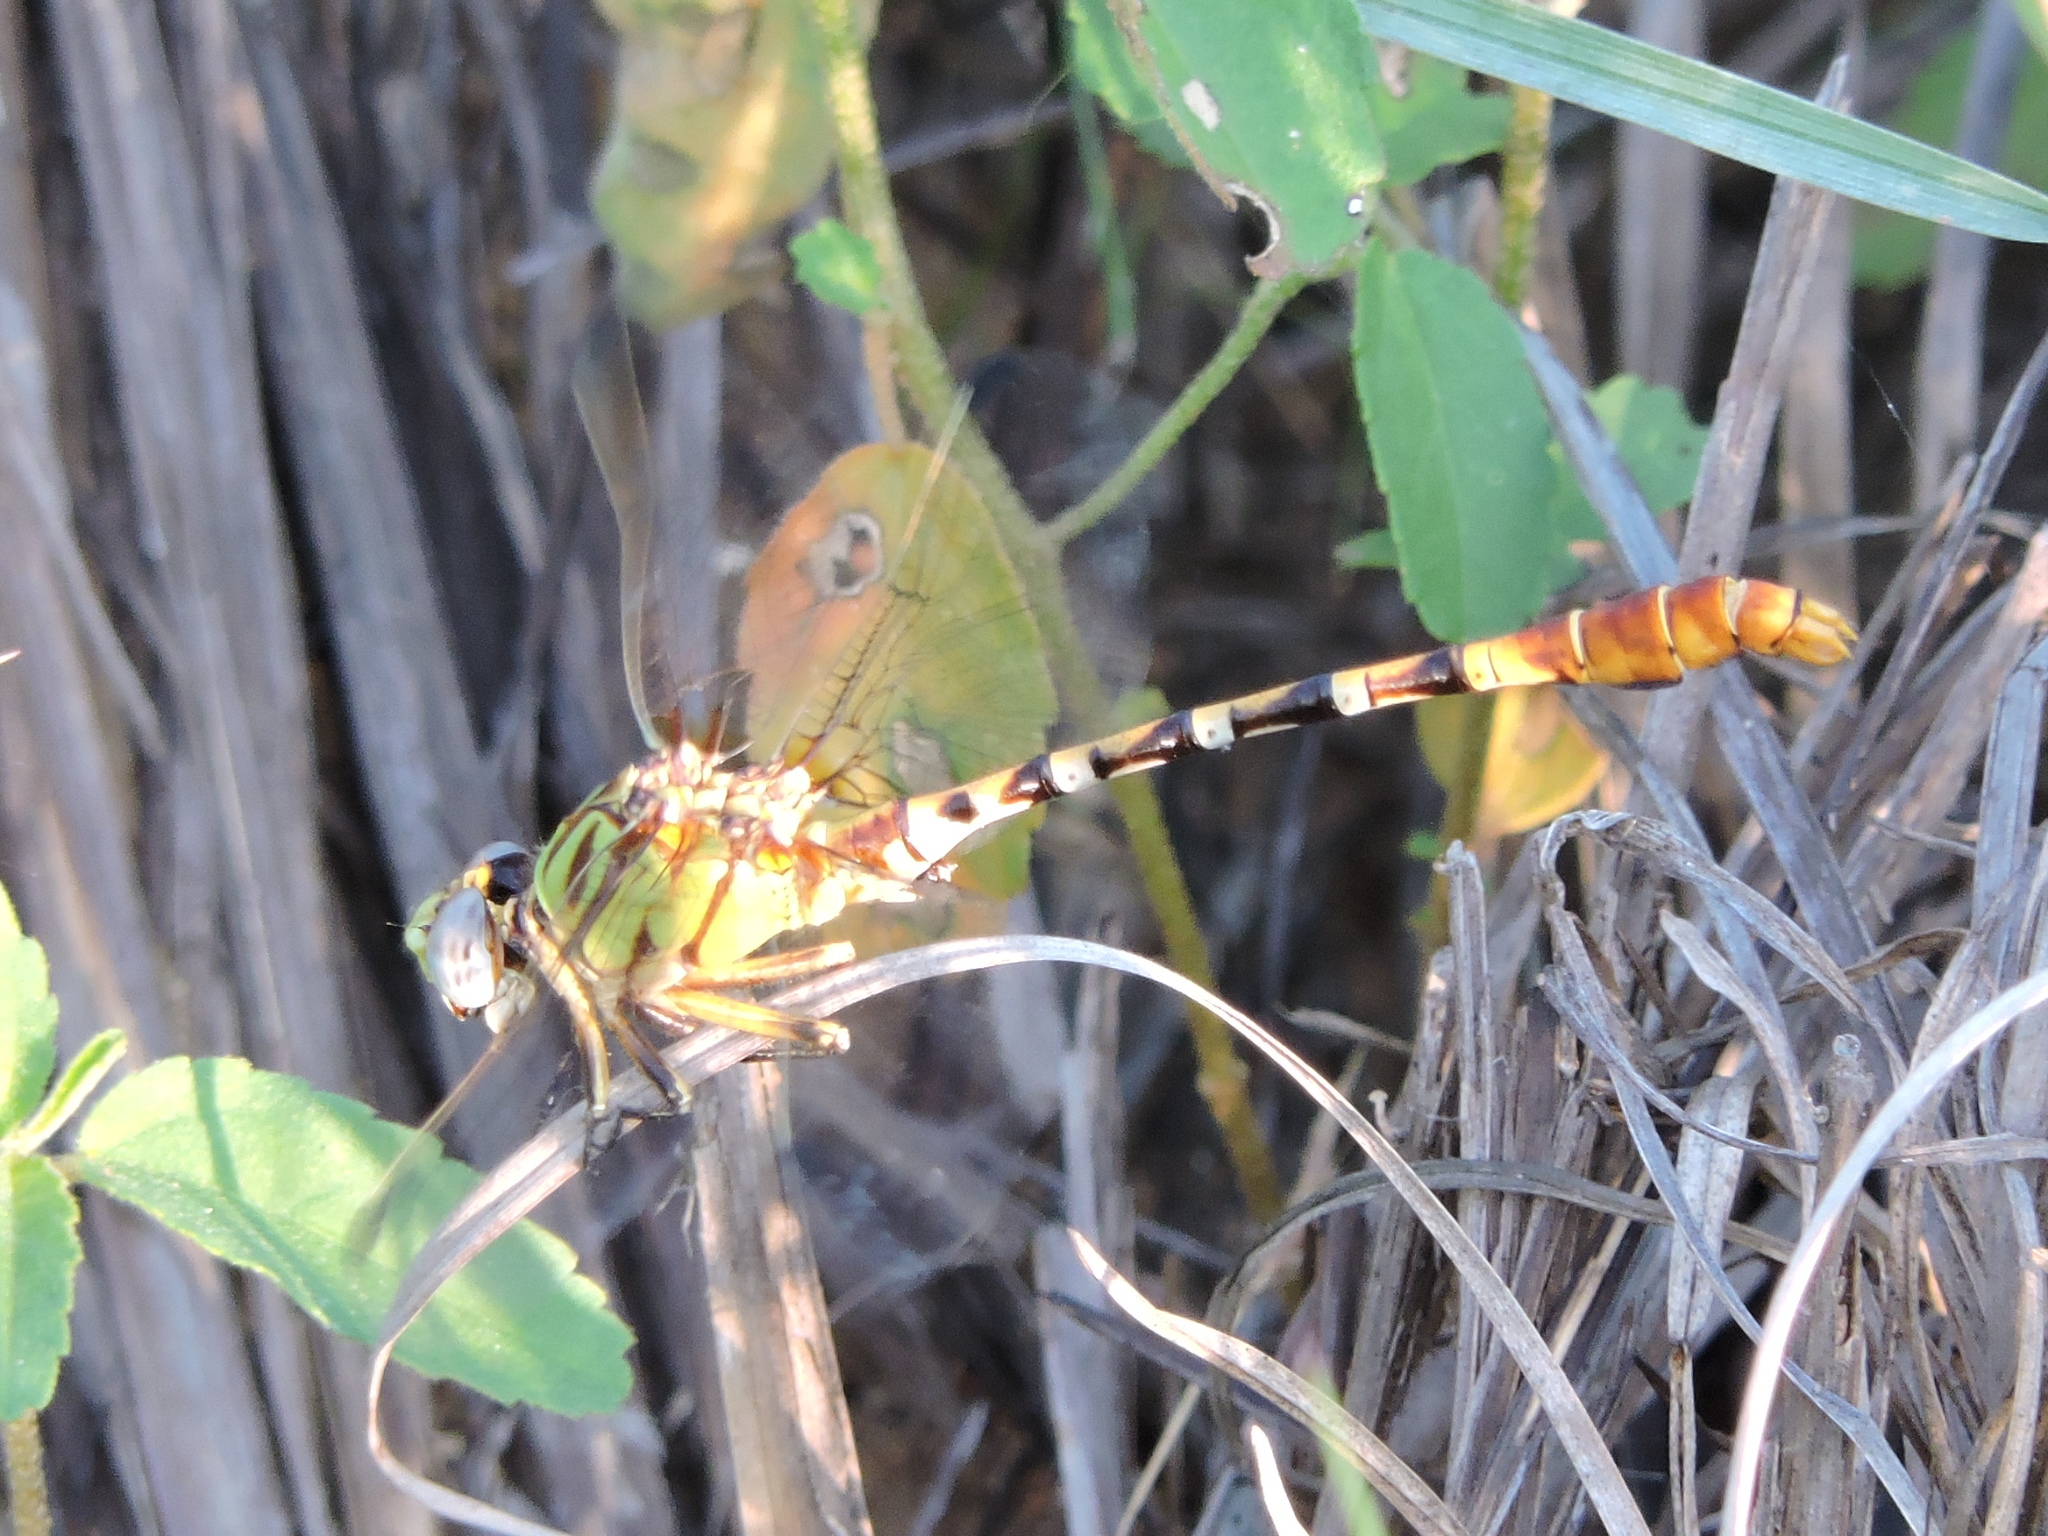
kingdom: Animalia
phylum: Arthropoda
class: Insecta
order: Odonata
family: Gomphidae
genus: Erpetogomphus
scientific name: Erpetogomphus designatus
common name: Eastern ringtail
